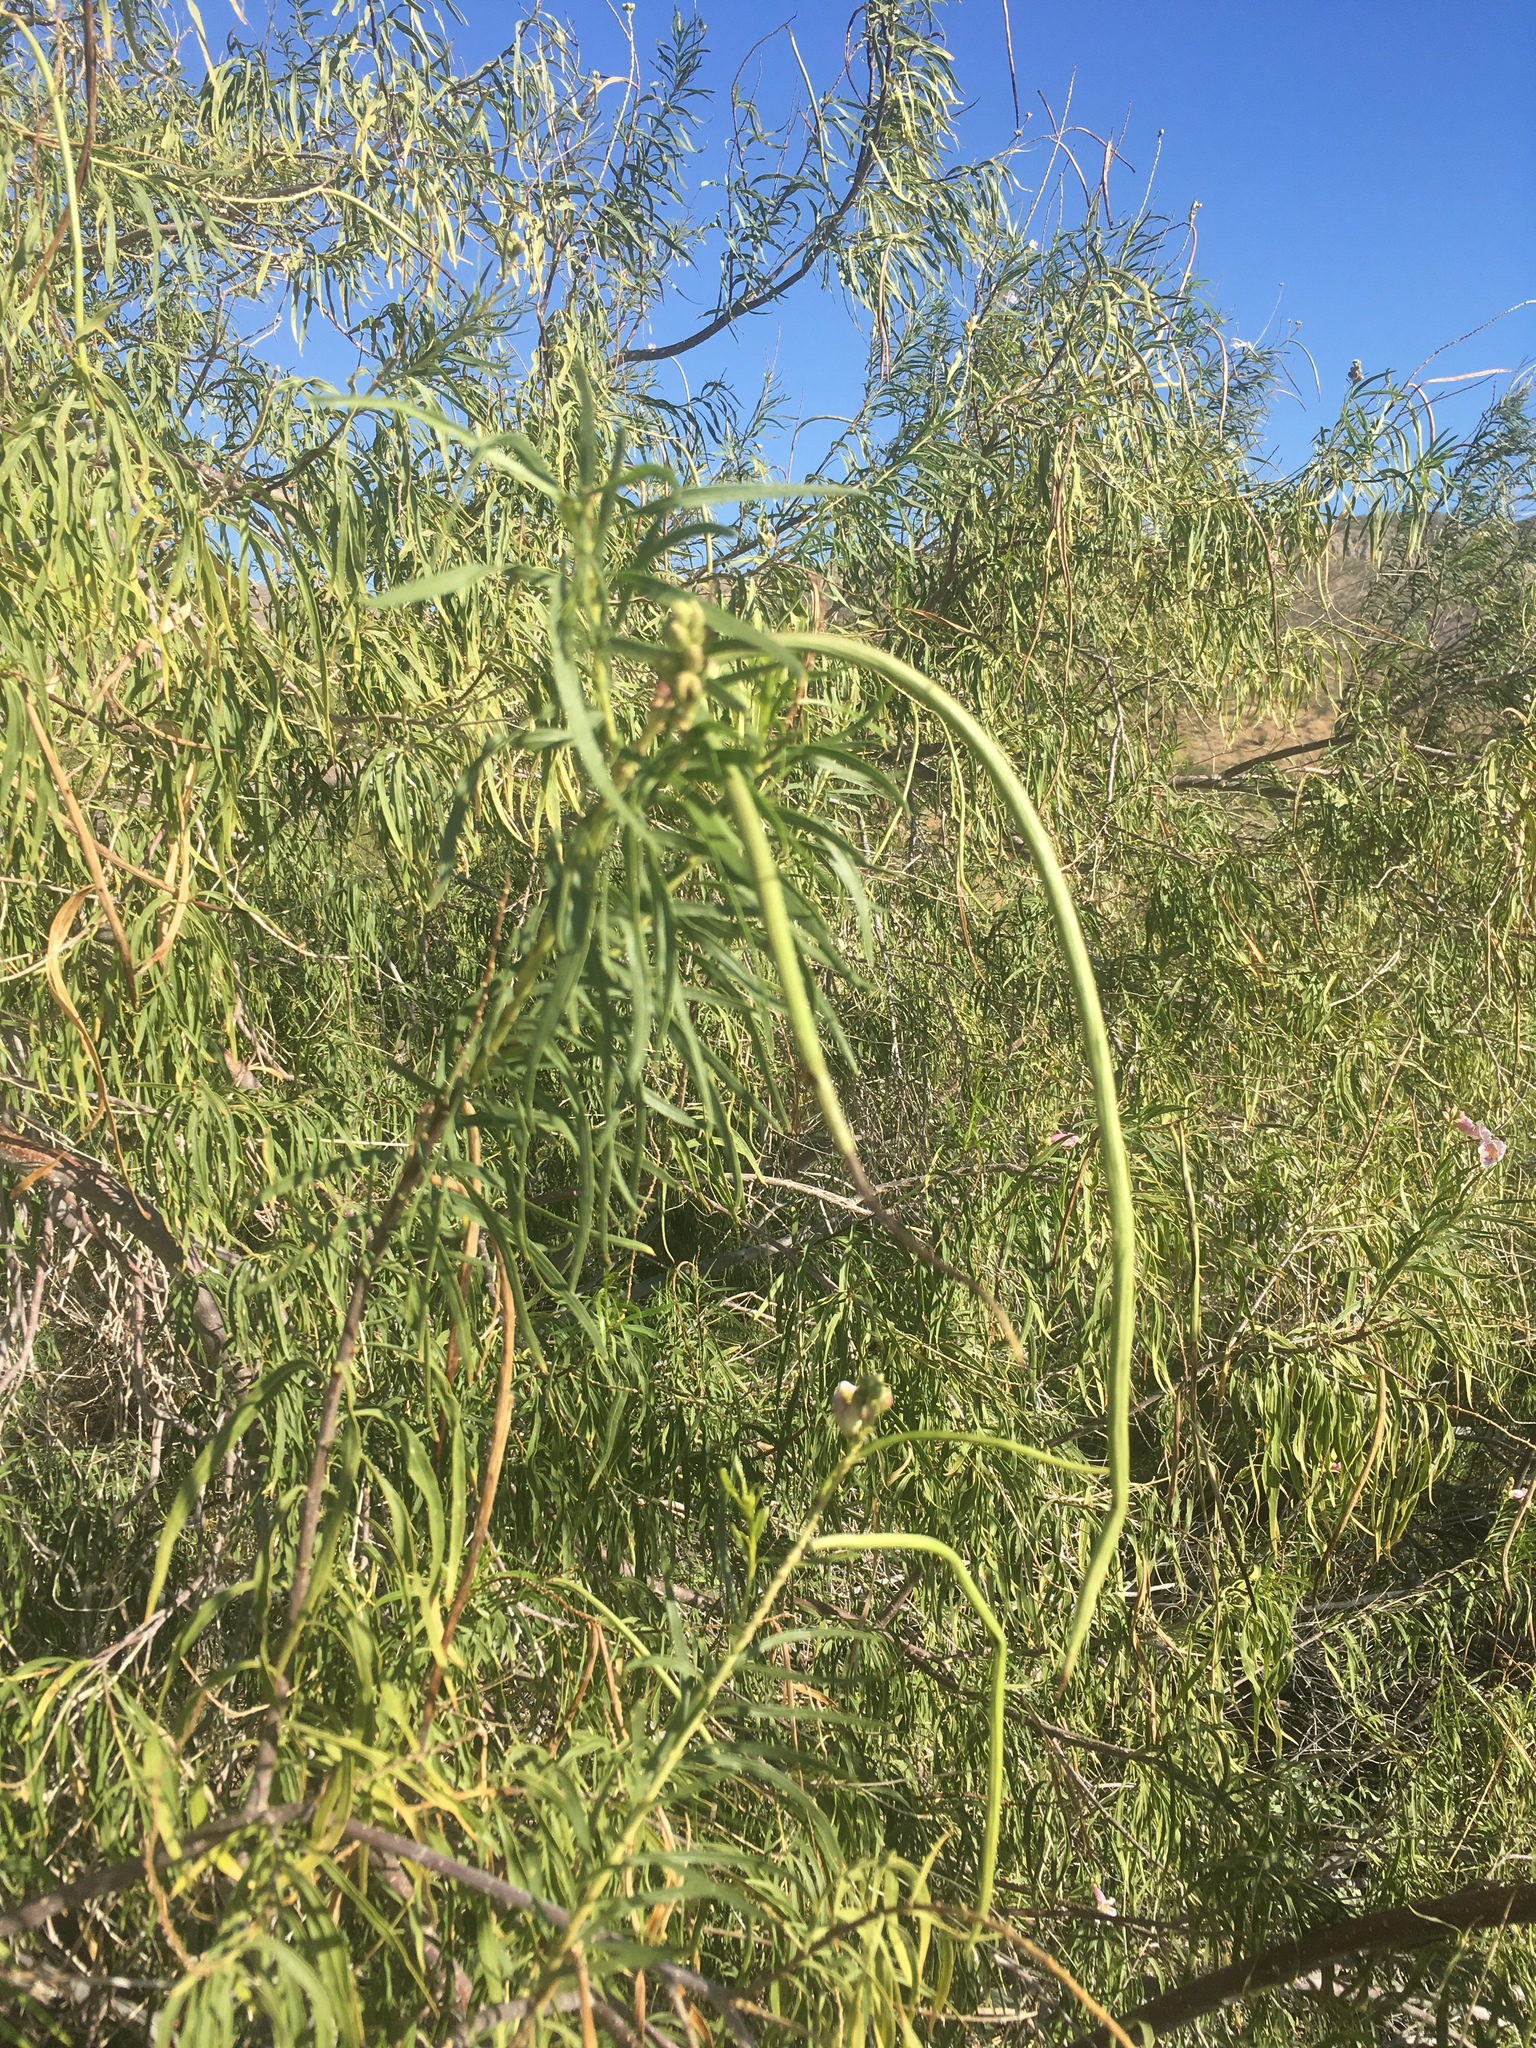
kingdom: Plantae
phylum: Tracheophyta
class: Magnoliopsida
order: Lamiales
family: Bignoniaceae
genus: Chilopsis
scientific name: Chilopsis linearis
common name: Desert-willow
